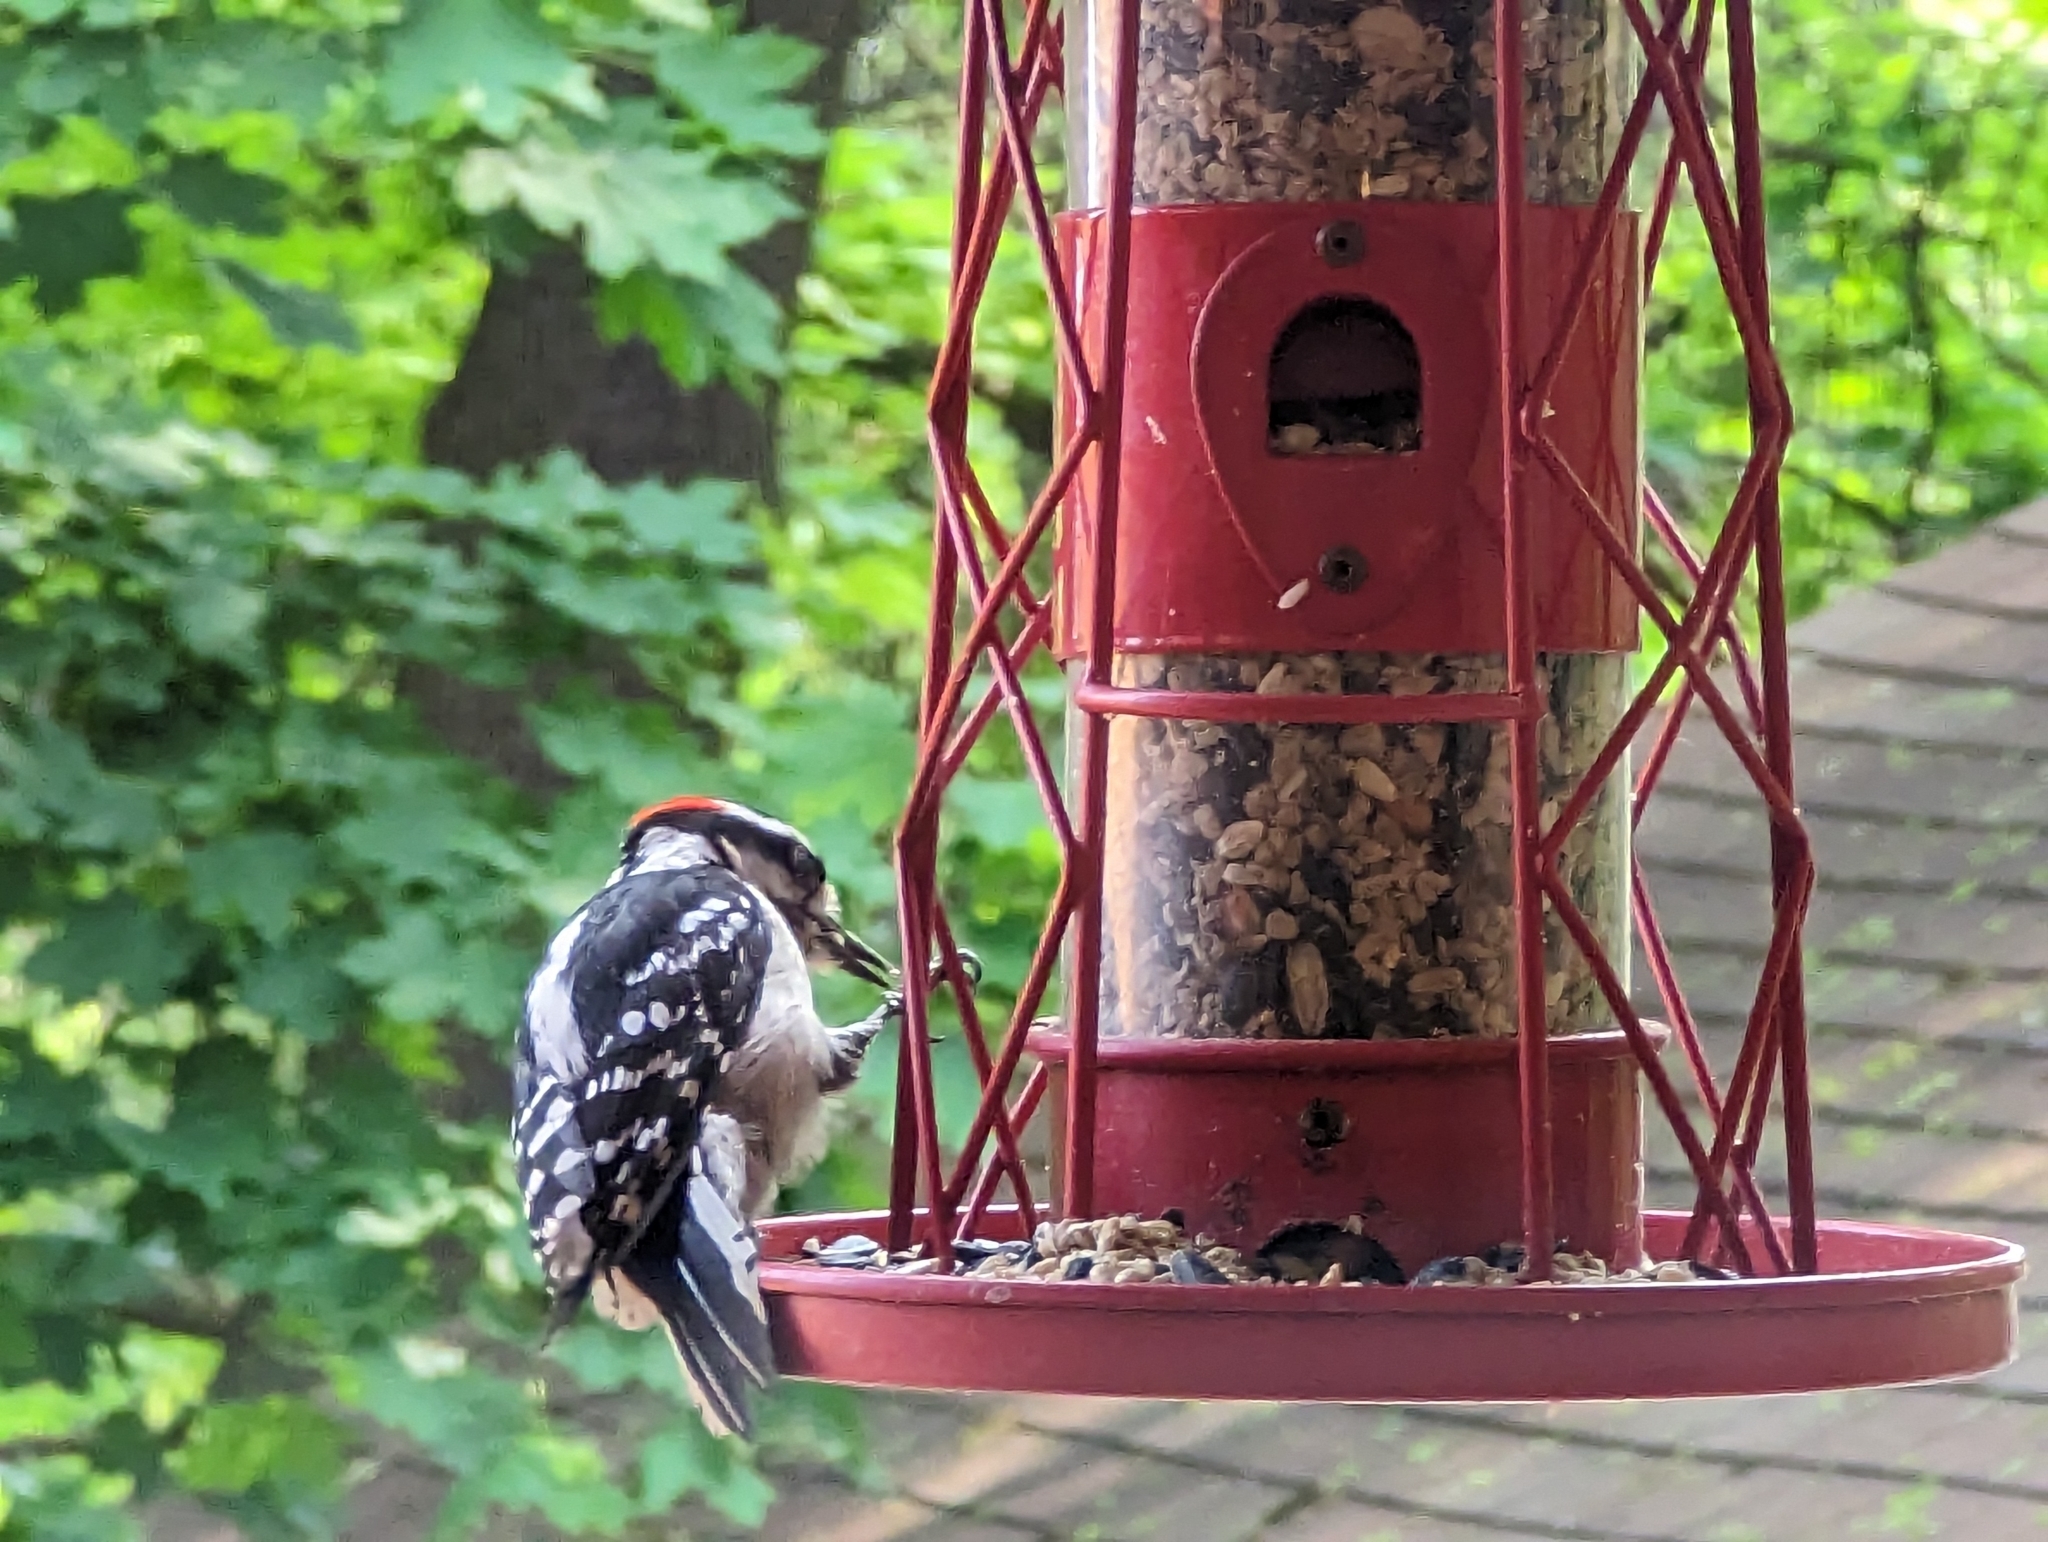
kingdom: Animalia
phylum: Chordata
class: Aves
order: Piciformes
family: Picidae
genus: Dryobates
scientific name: Dryobates pubescens
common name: Downy woodpecker
